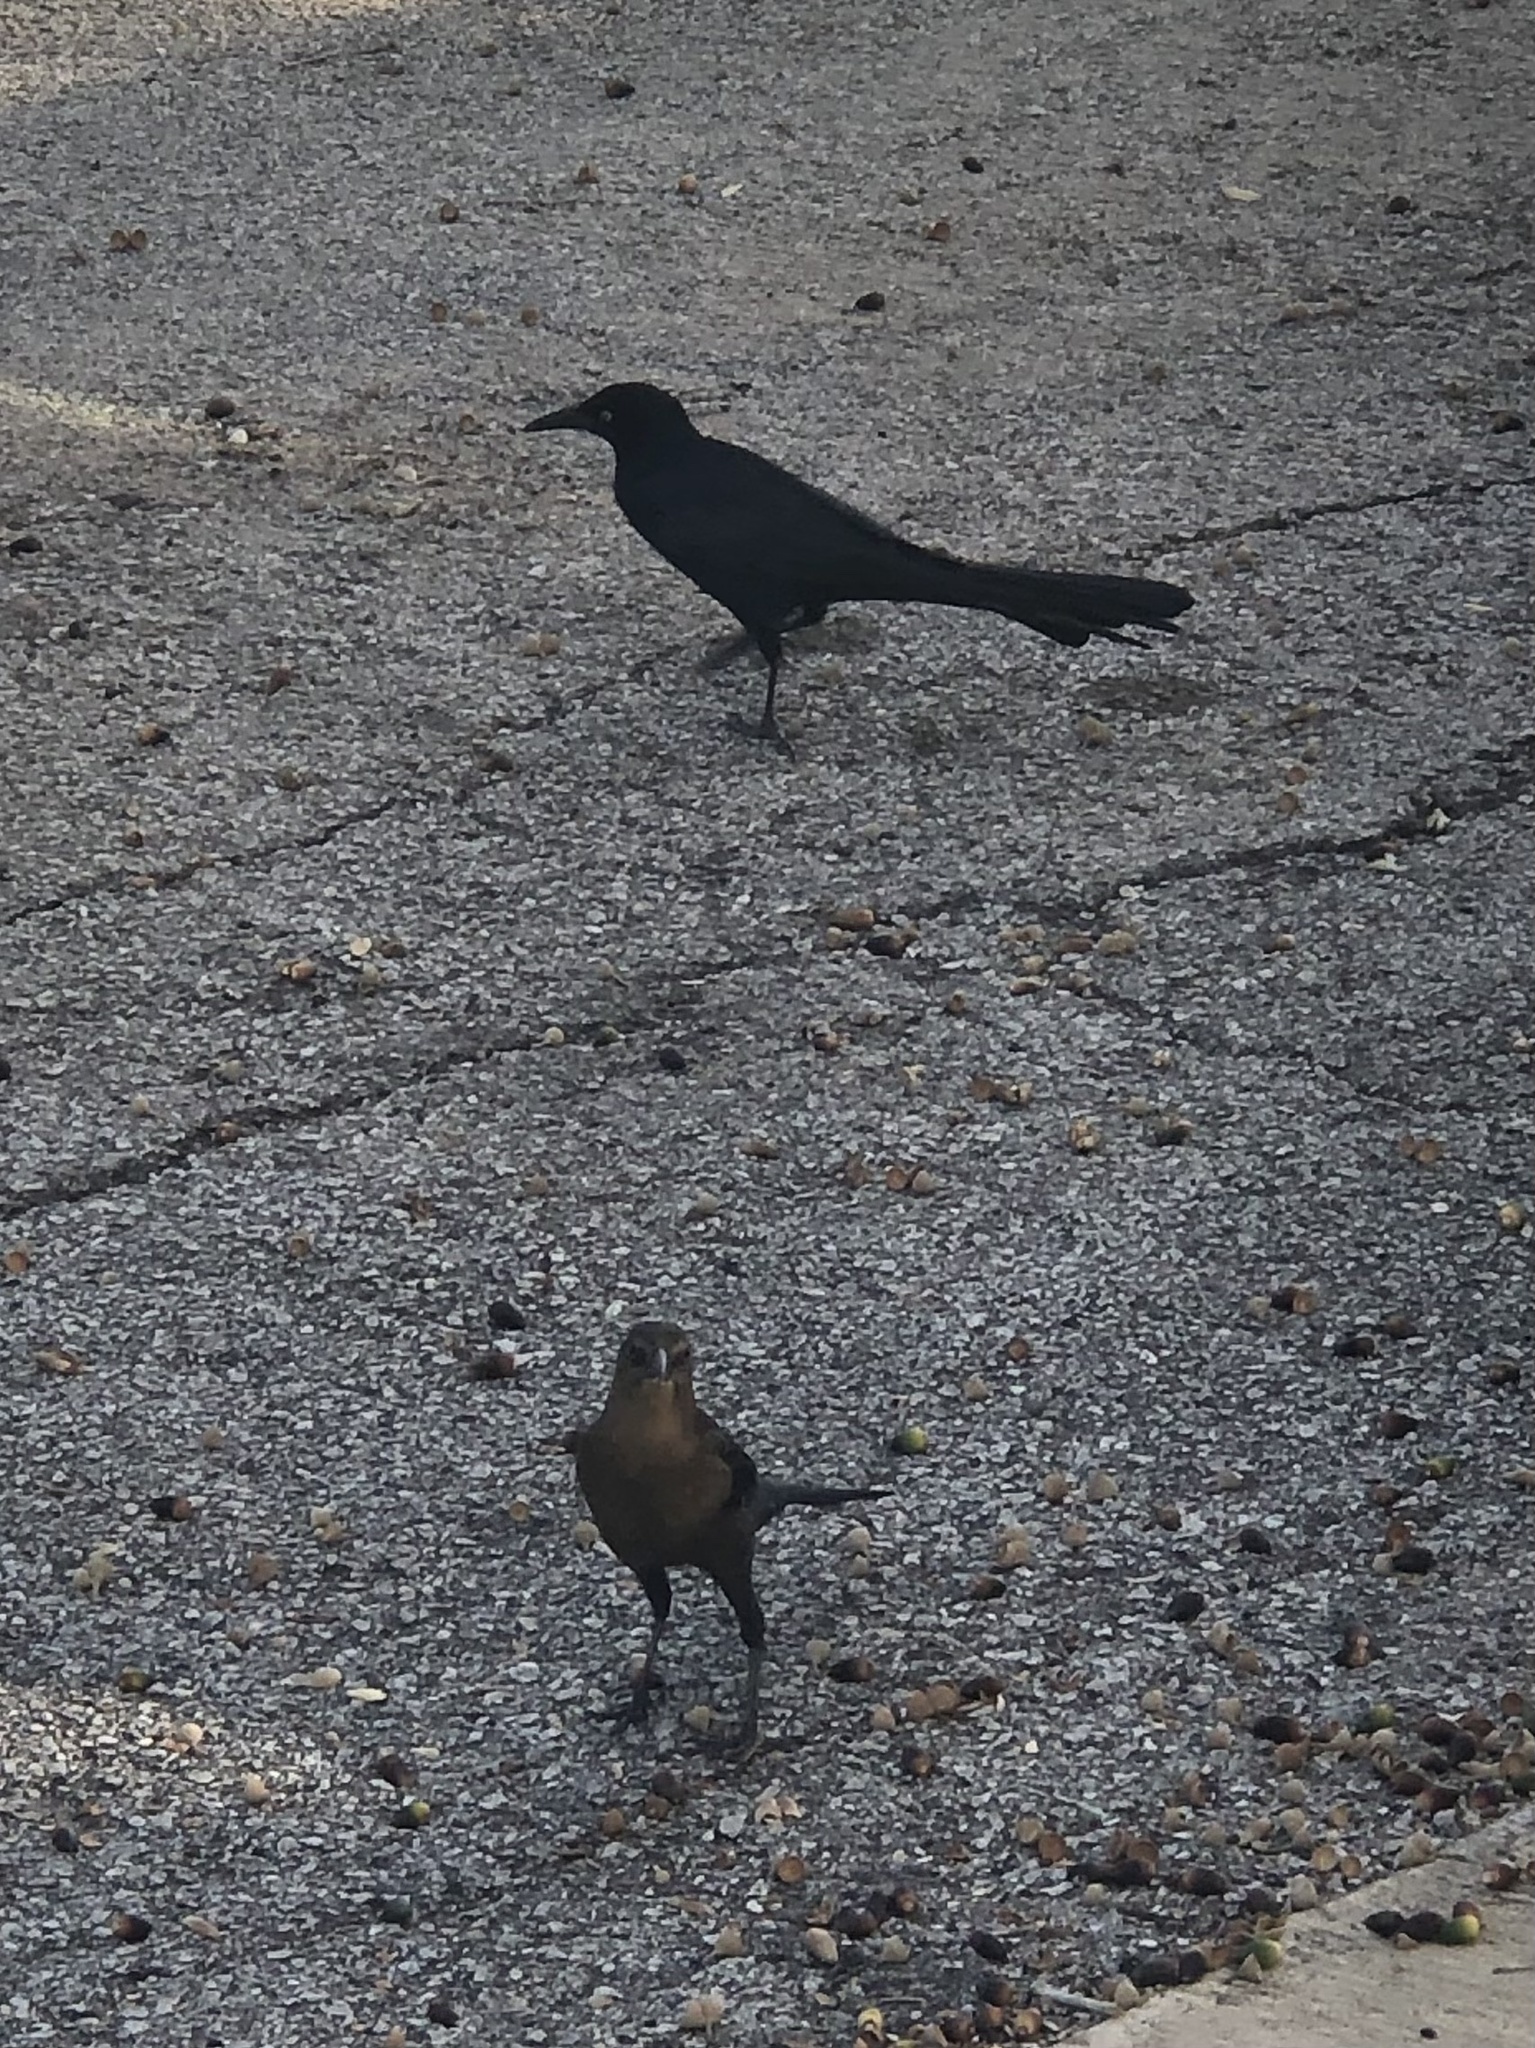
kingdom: Animalia
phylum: Chordata
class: Aves
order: Passeriformes
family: Icteridae
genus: Quiscalus
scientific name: Quiscalus mexicanus
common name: Great-tailed grackle
